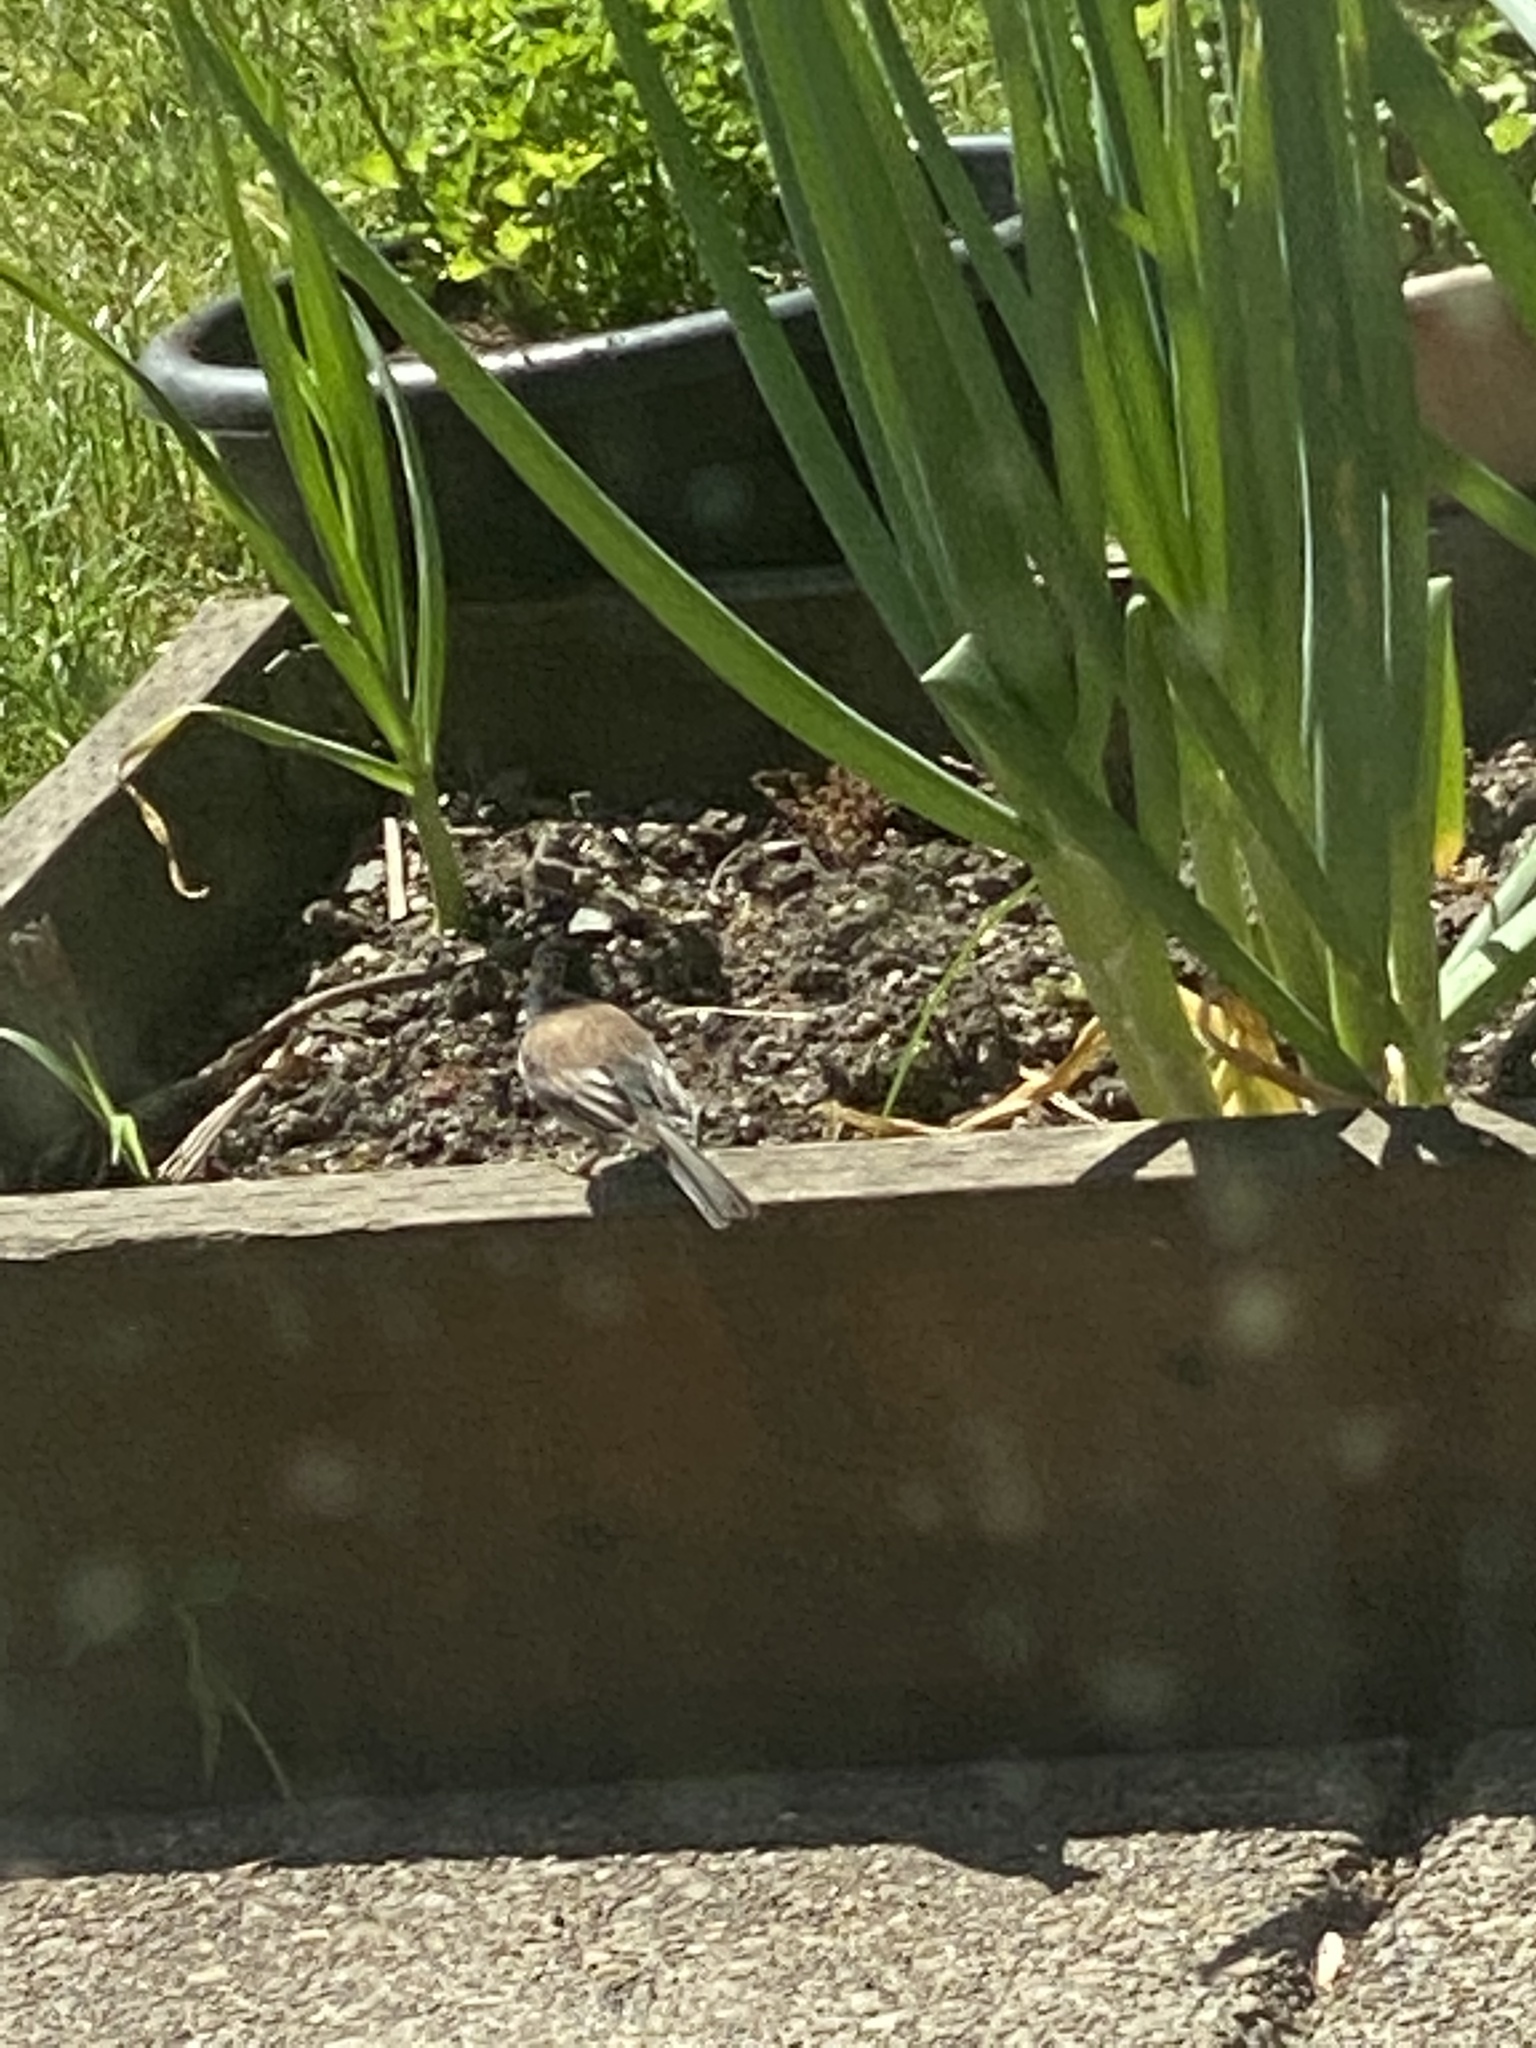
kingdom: Animalia
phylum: Chordata
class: Aves
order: Passeriformes
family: Passerellidae
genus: Junco
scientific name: Junco hyemalis
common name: Dark-eyed junco
